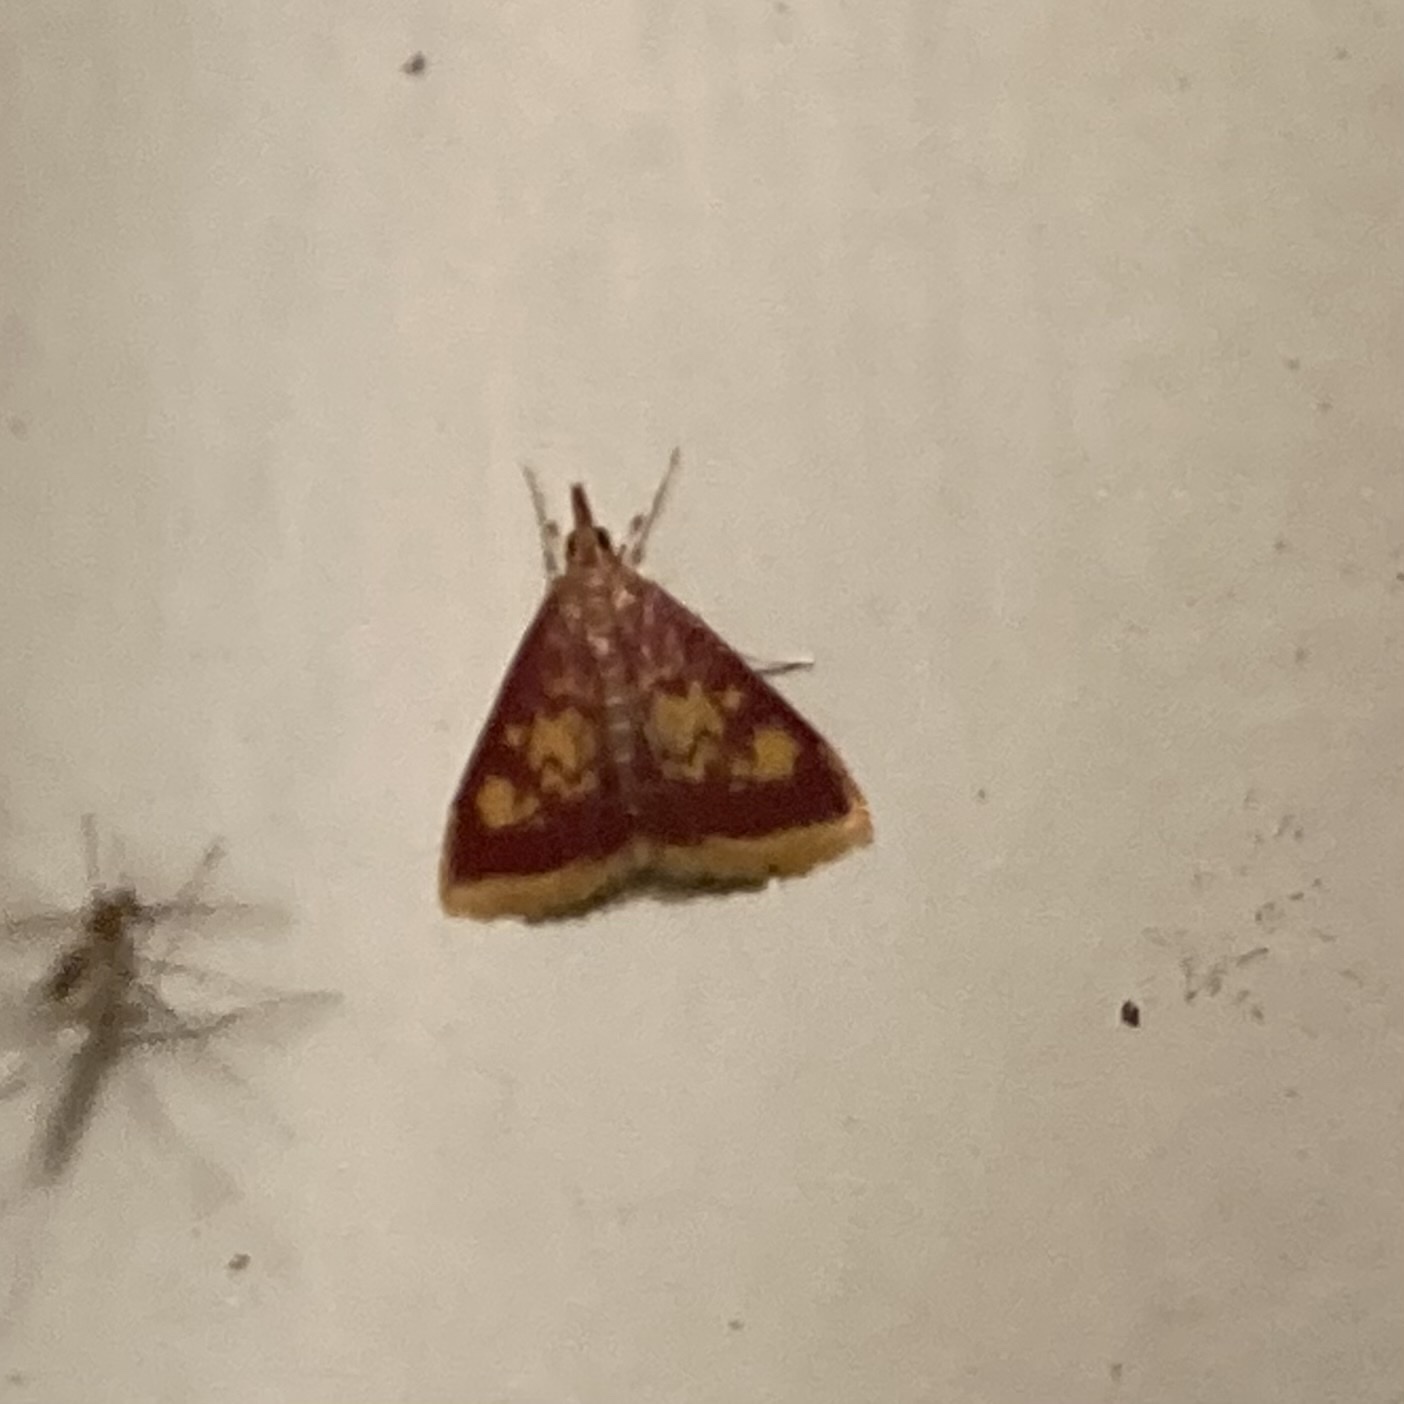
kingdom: Animalia
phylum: Arthropoda
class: Insecta
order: Lepidoptera
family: Crambidae
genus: Pyrausta
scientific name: Pyrausta acrionalis
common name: Mint-loving pyrausta moth
